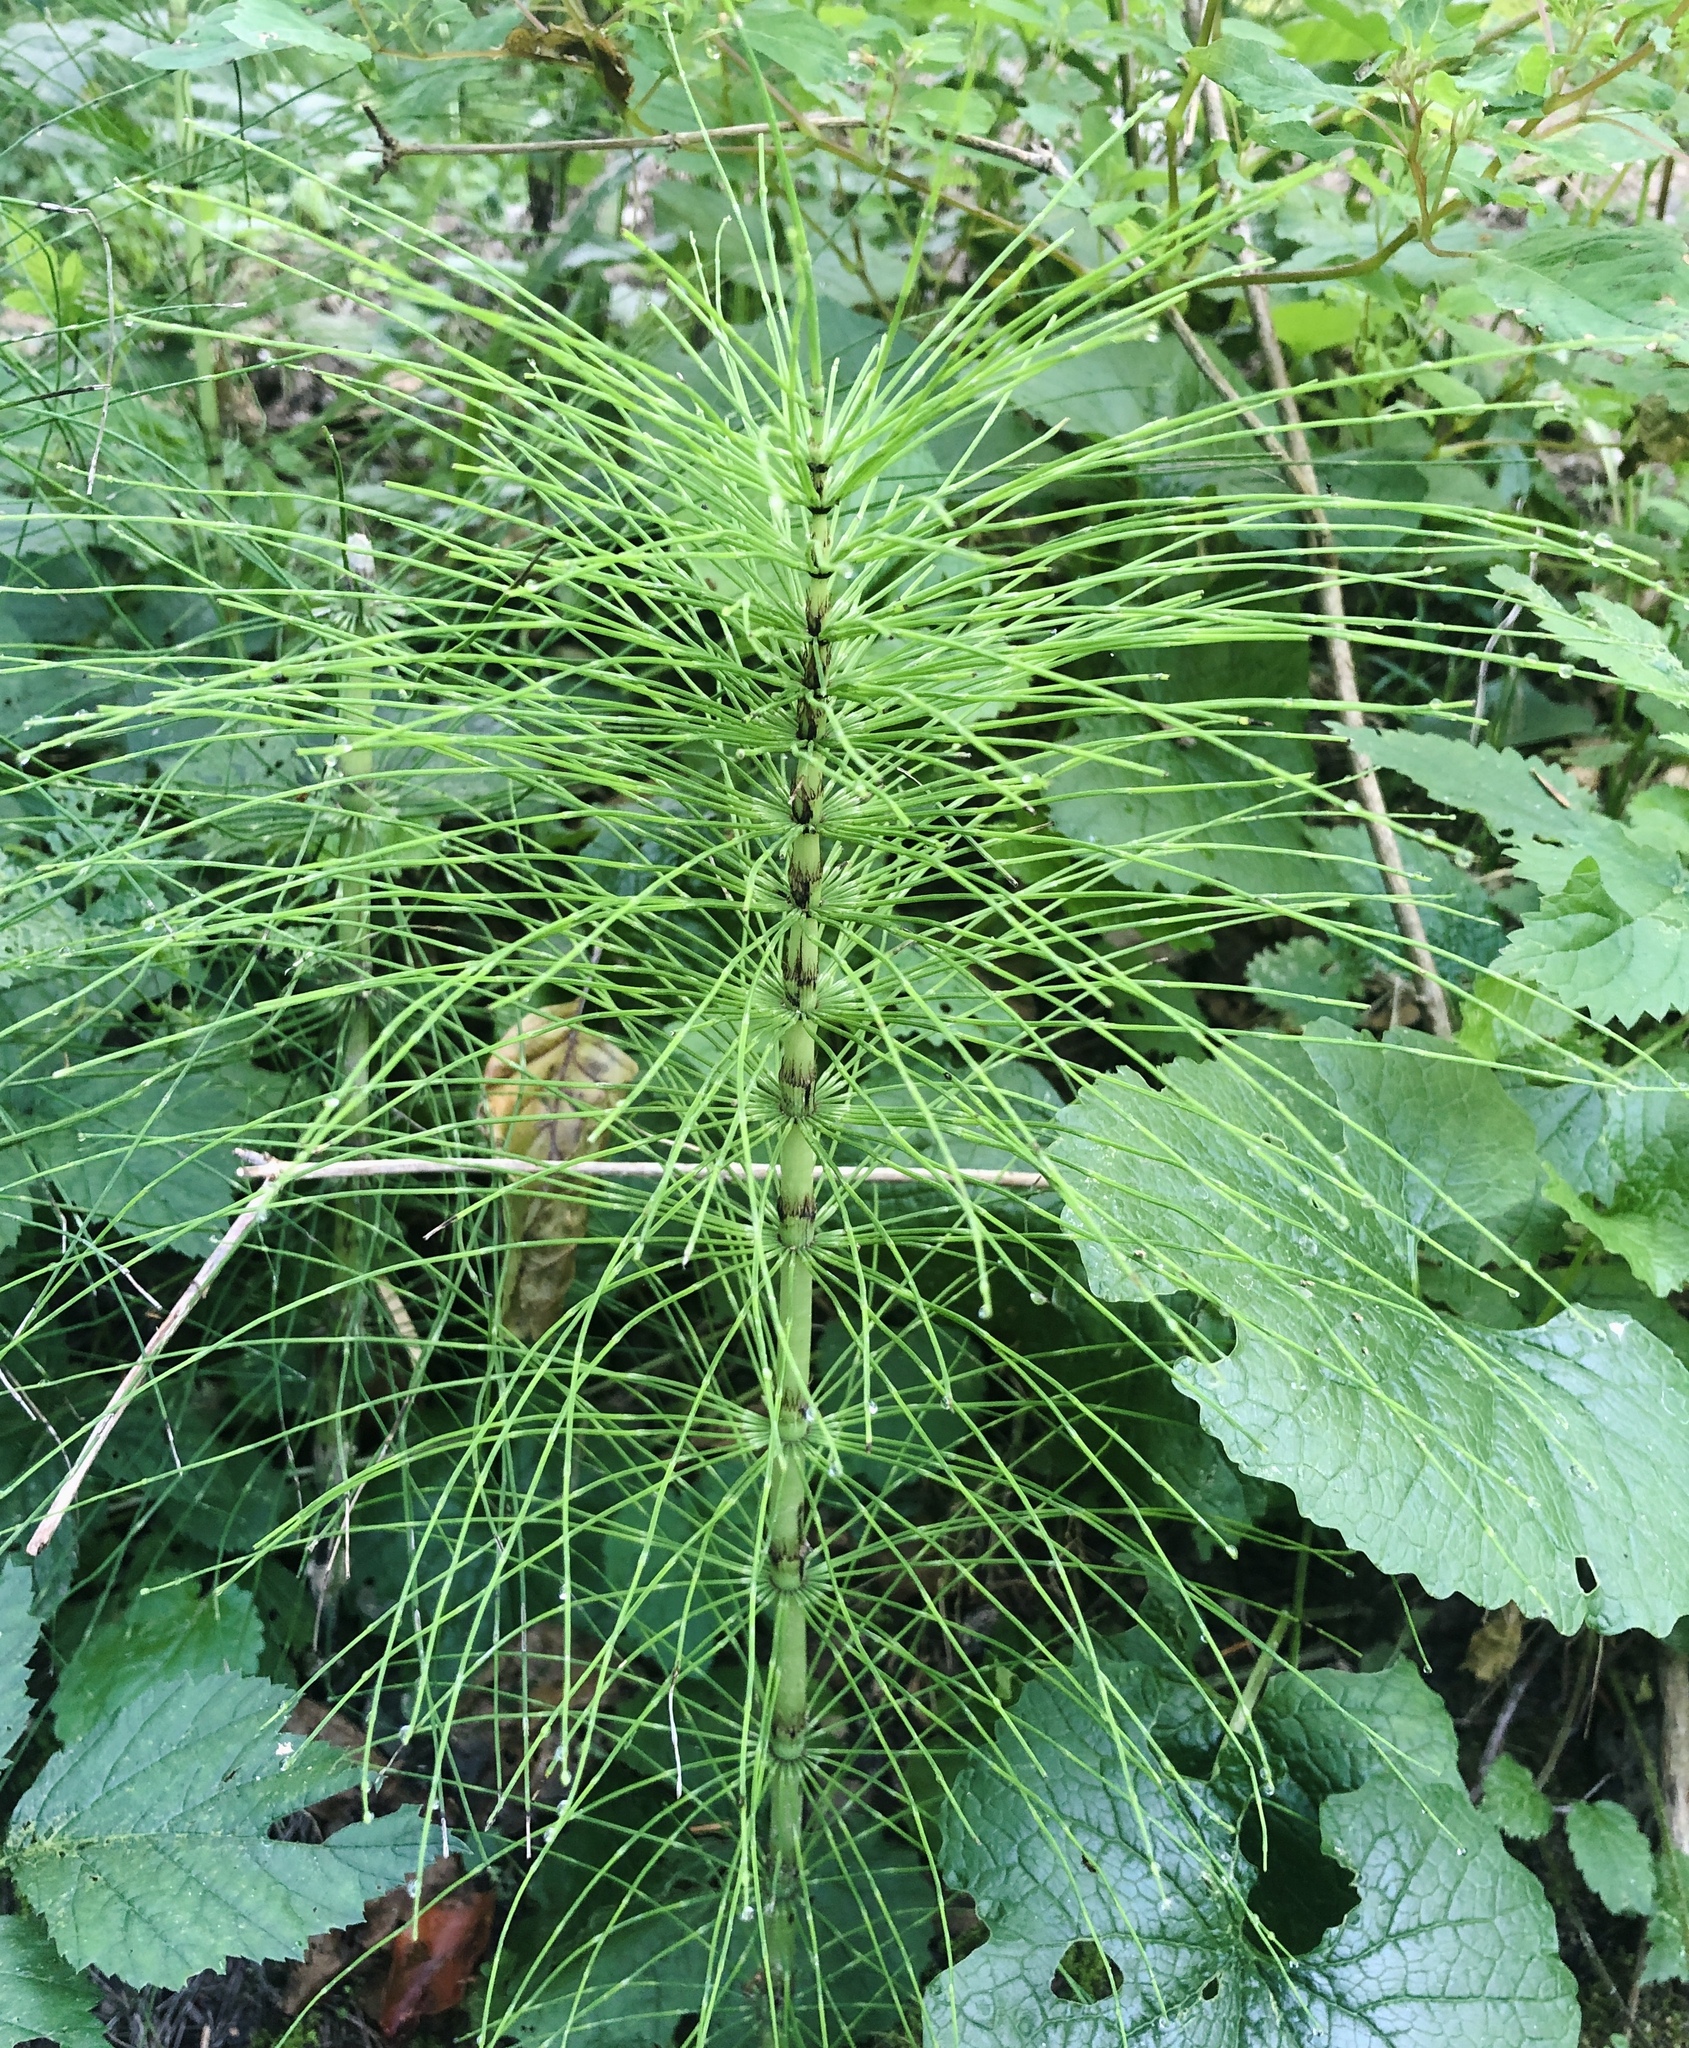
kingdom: Plantae
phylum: Tracheophyta
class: Polypodiopsida
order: Equisetales
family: Equisetaceae
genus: Equisetum
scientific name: Equisetum telmateia
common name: Great horsetail
